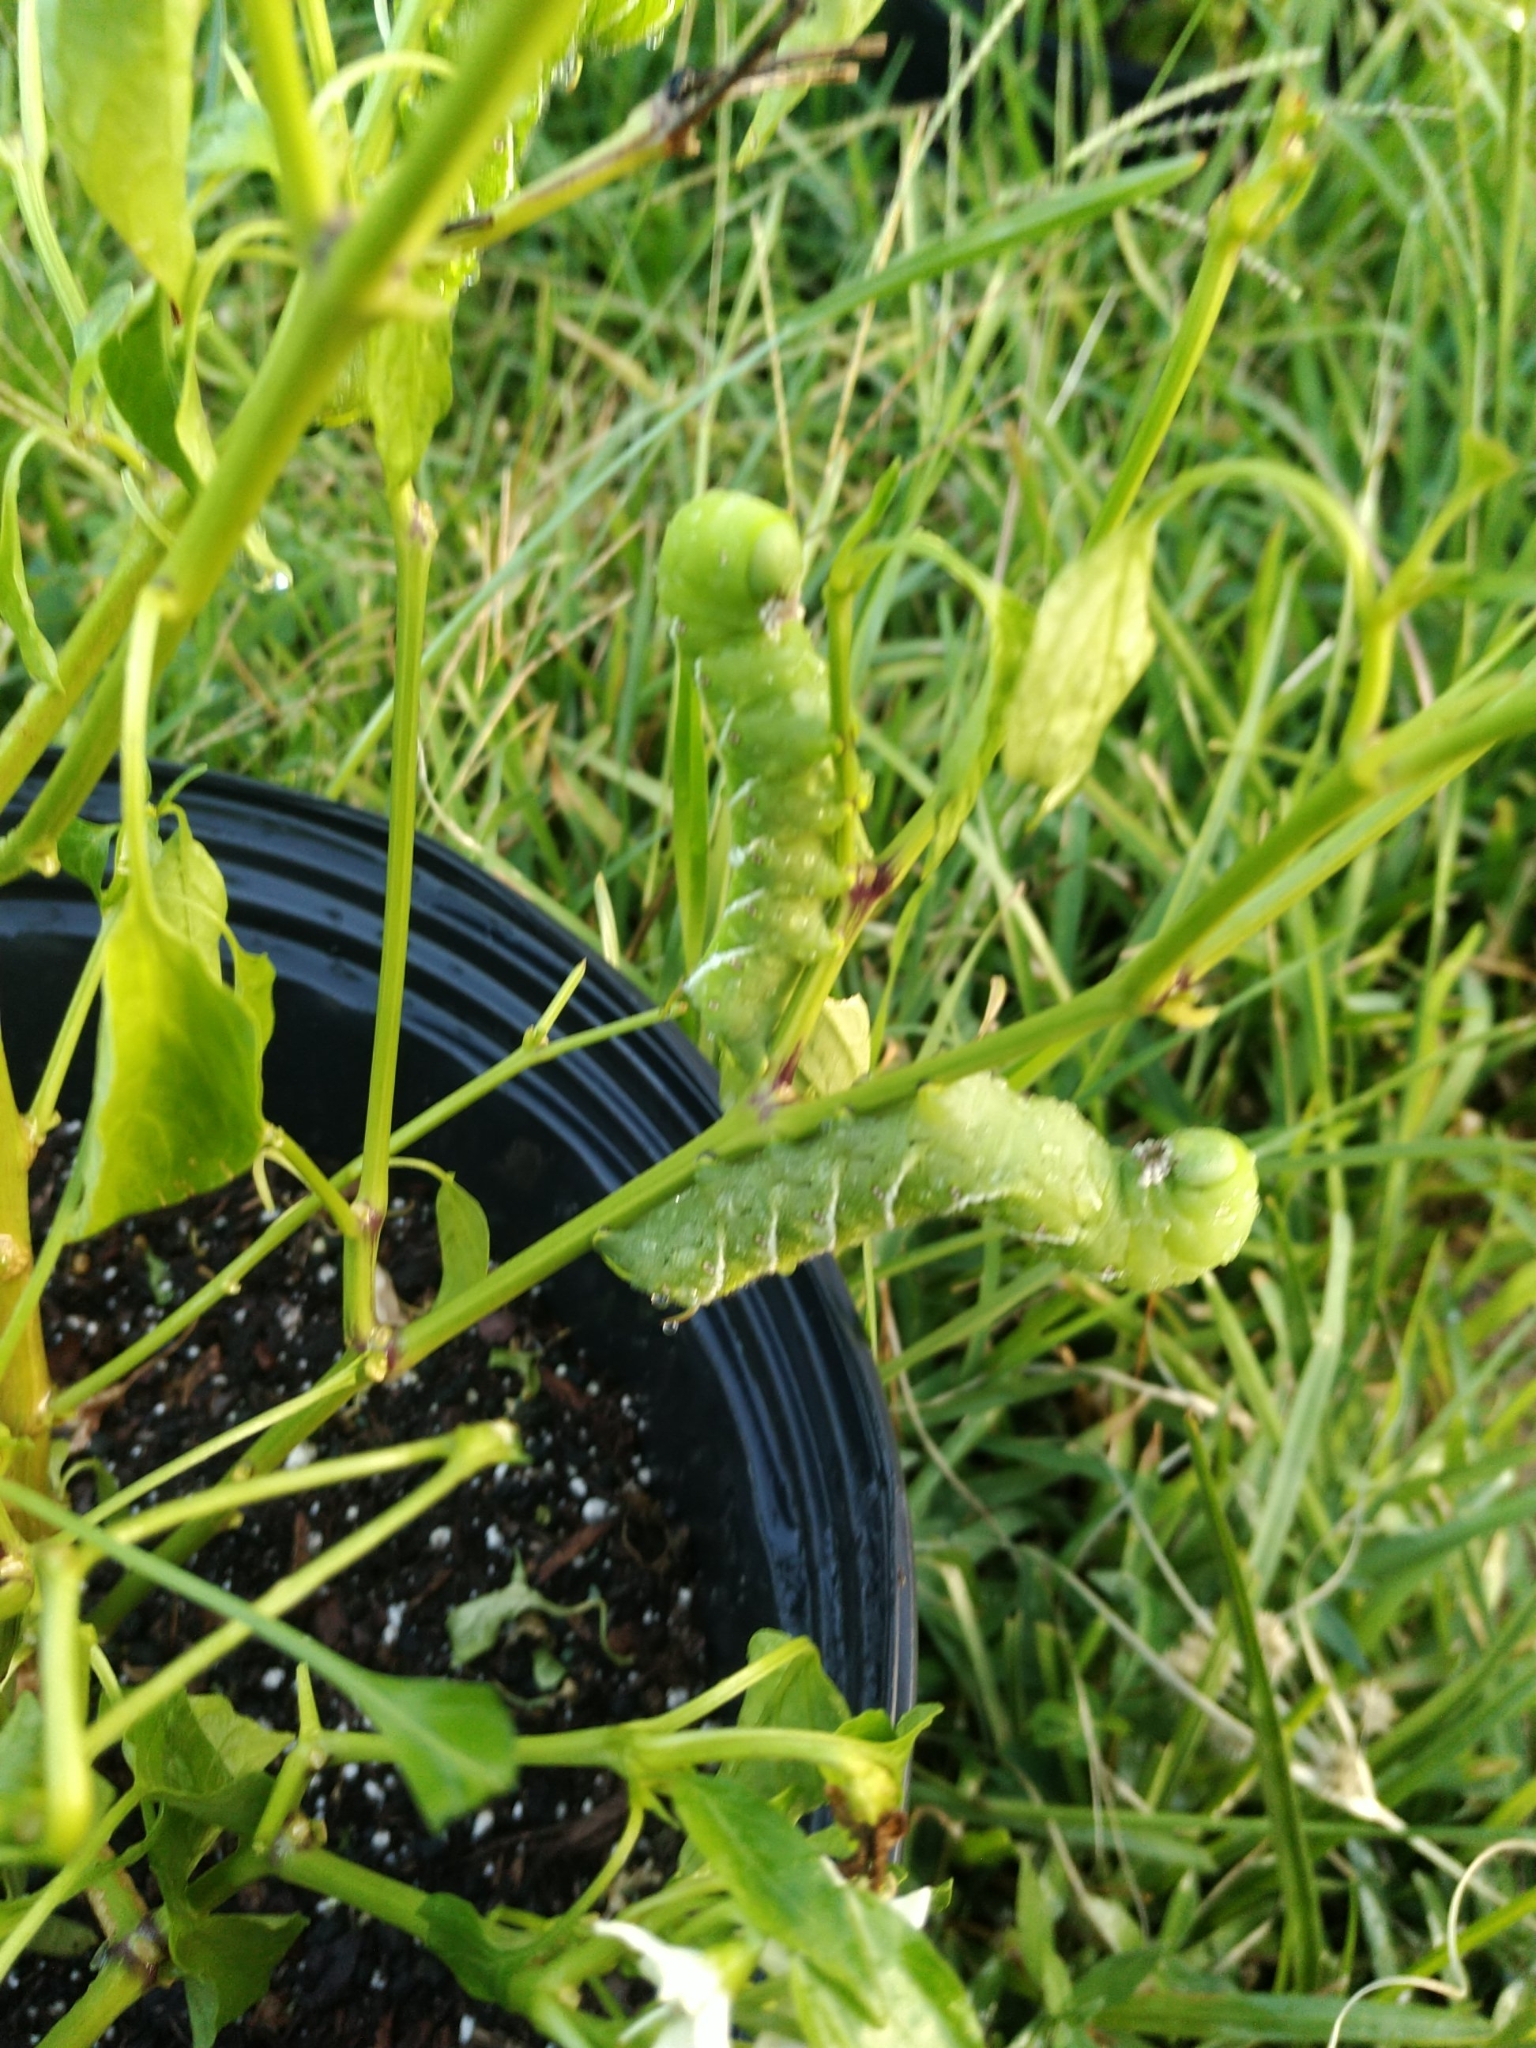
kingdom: Animalia
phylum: Arthropoda
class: Insecta
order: Lepidoptera
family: Sphingidae
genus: Manduca
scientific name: Manduca sexta
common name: Carolina sphinx
